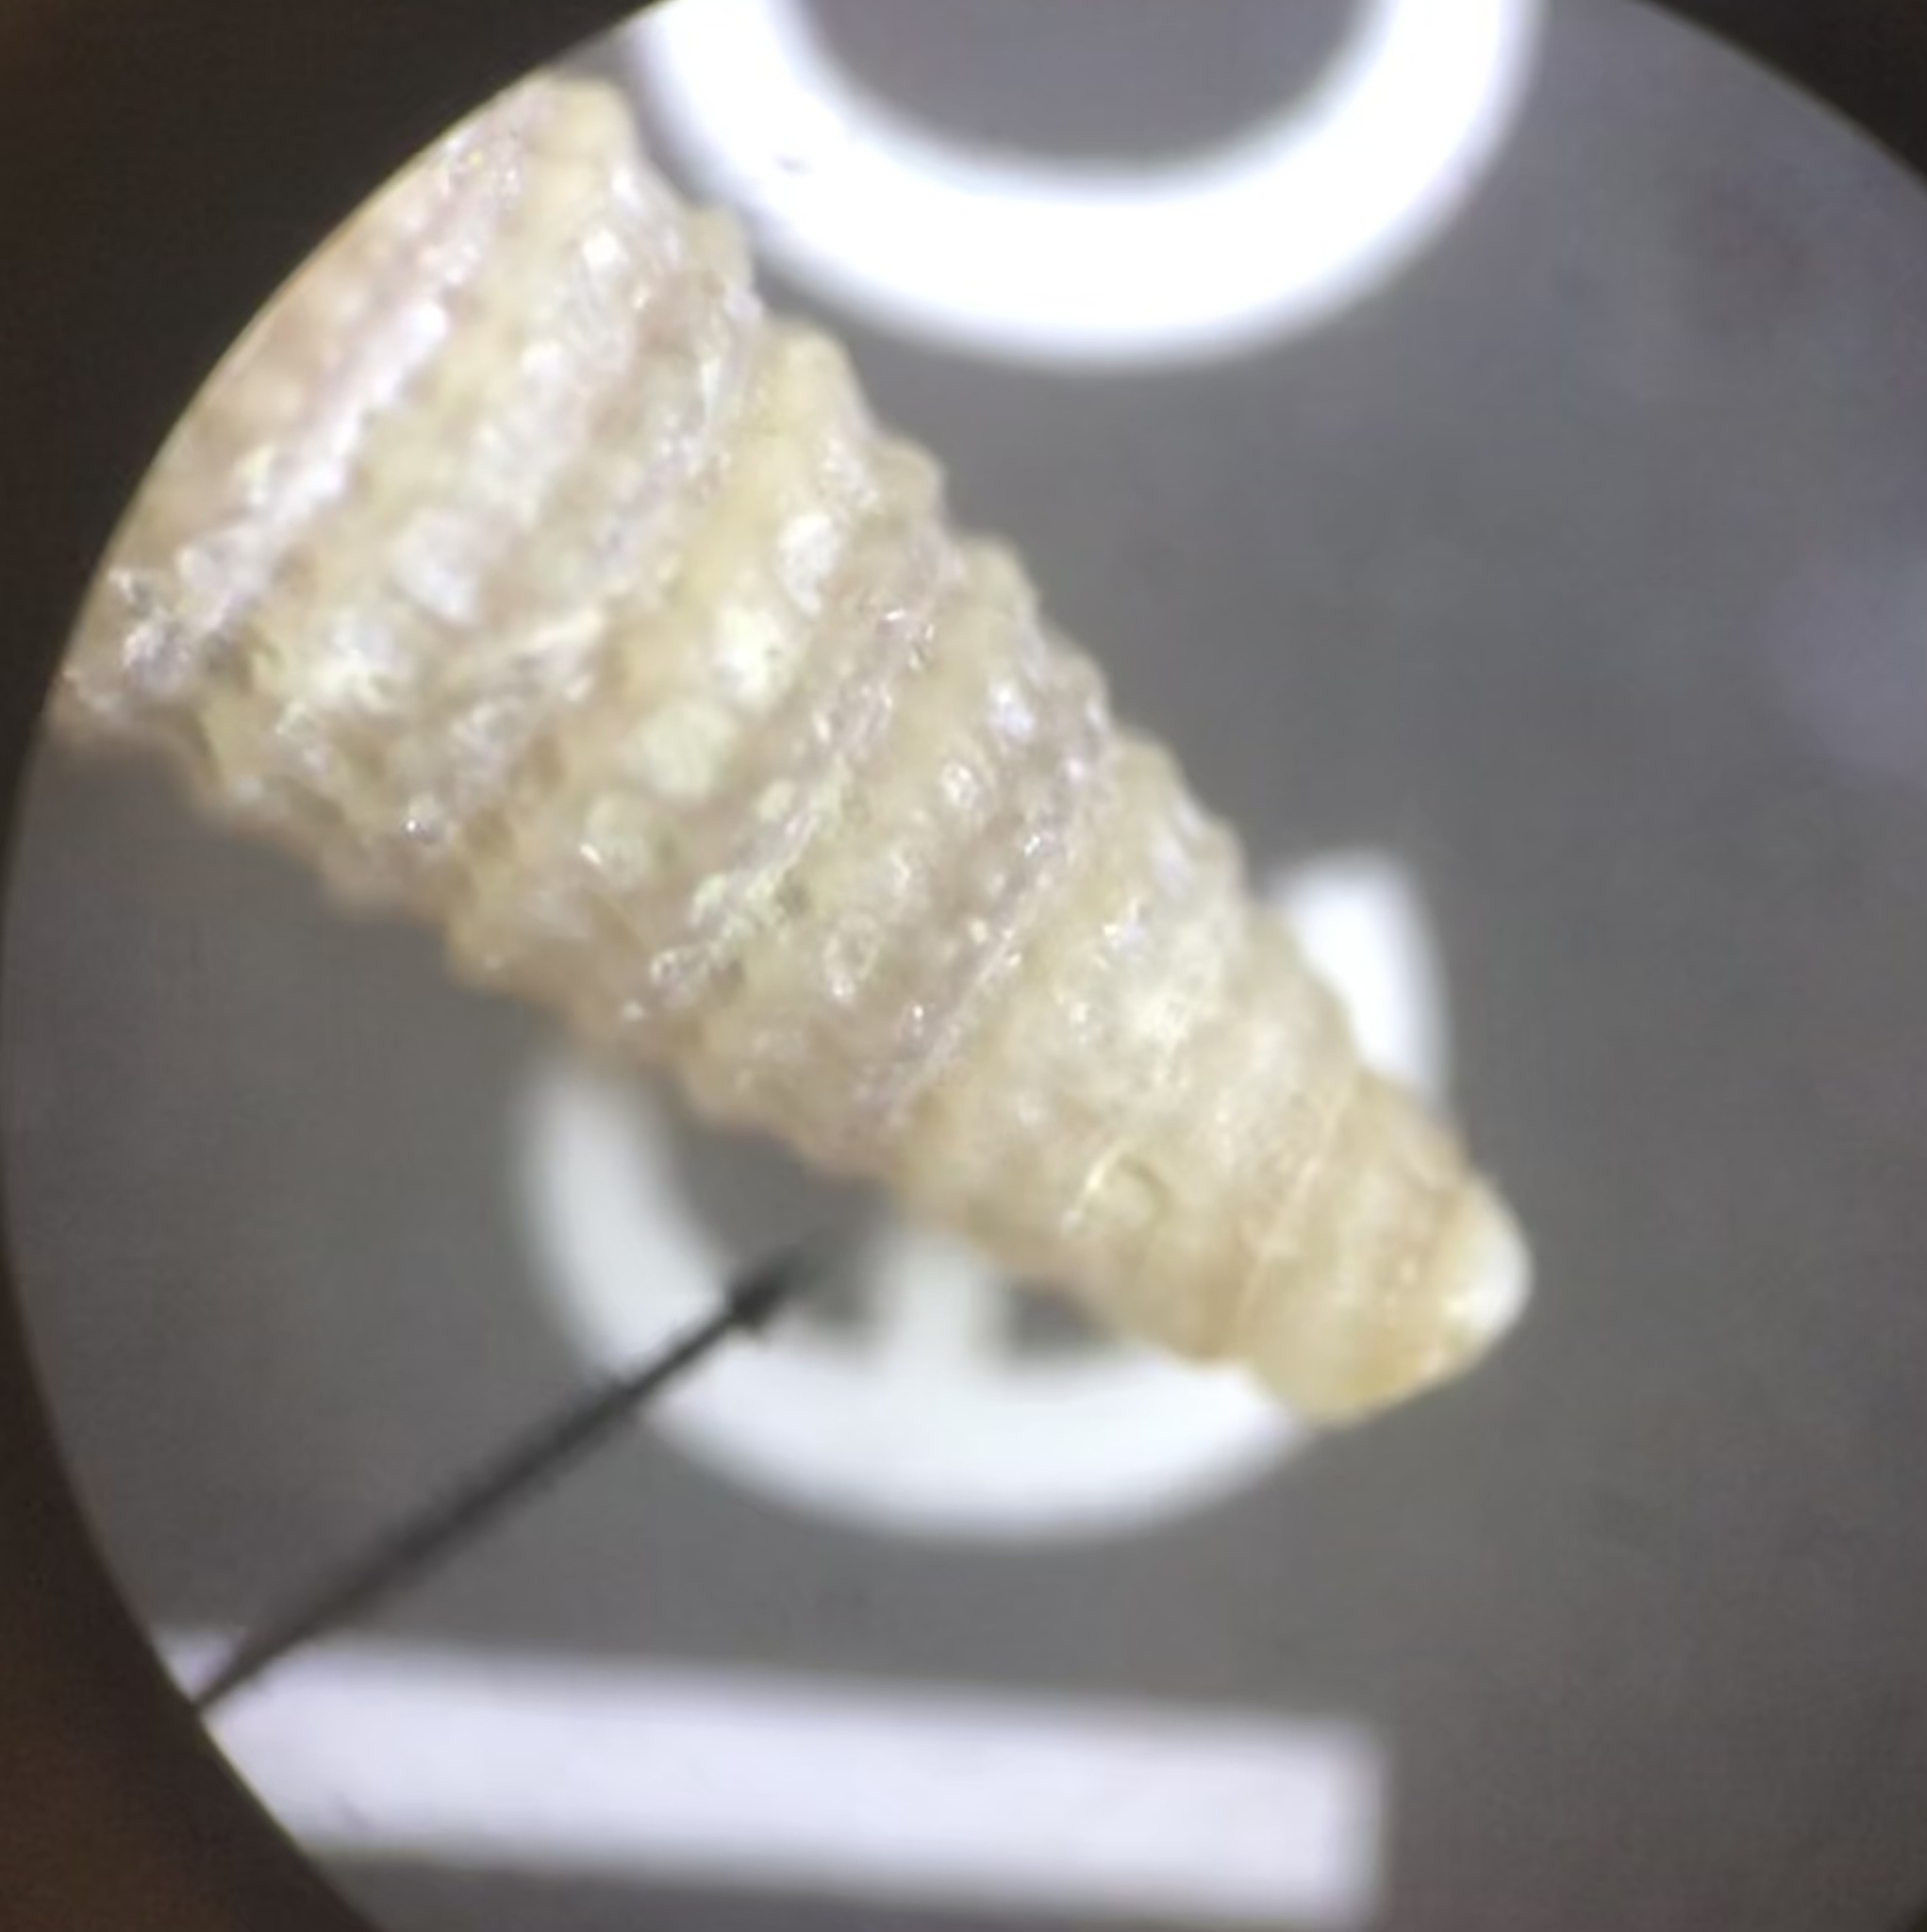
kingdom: Animalia
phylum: Mollusca
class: Gastropoda
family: Newtoniellidae
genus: Retilaskeya
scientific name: Retilaskeya bicolor
